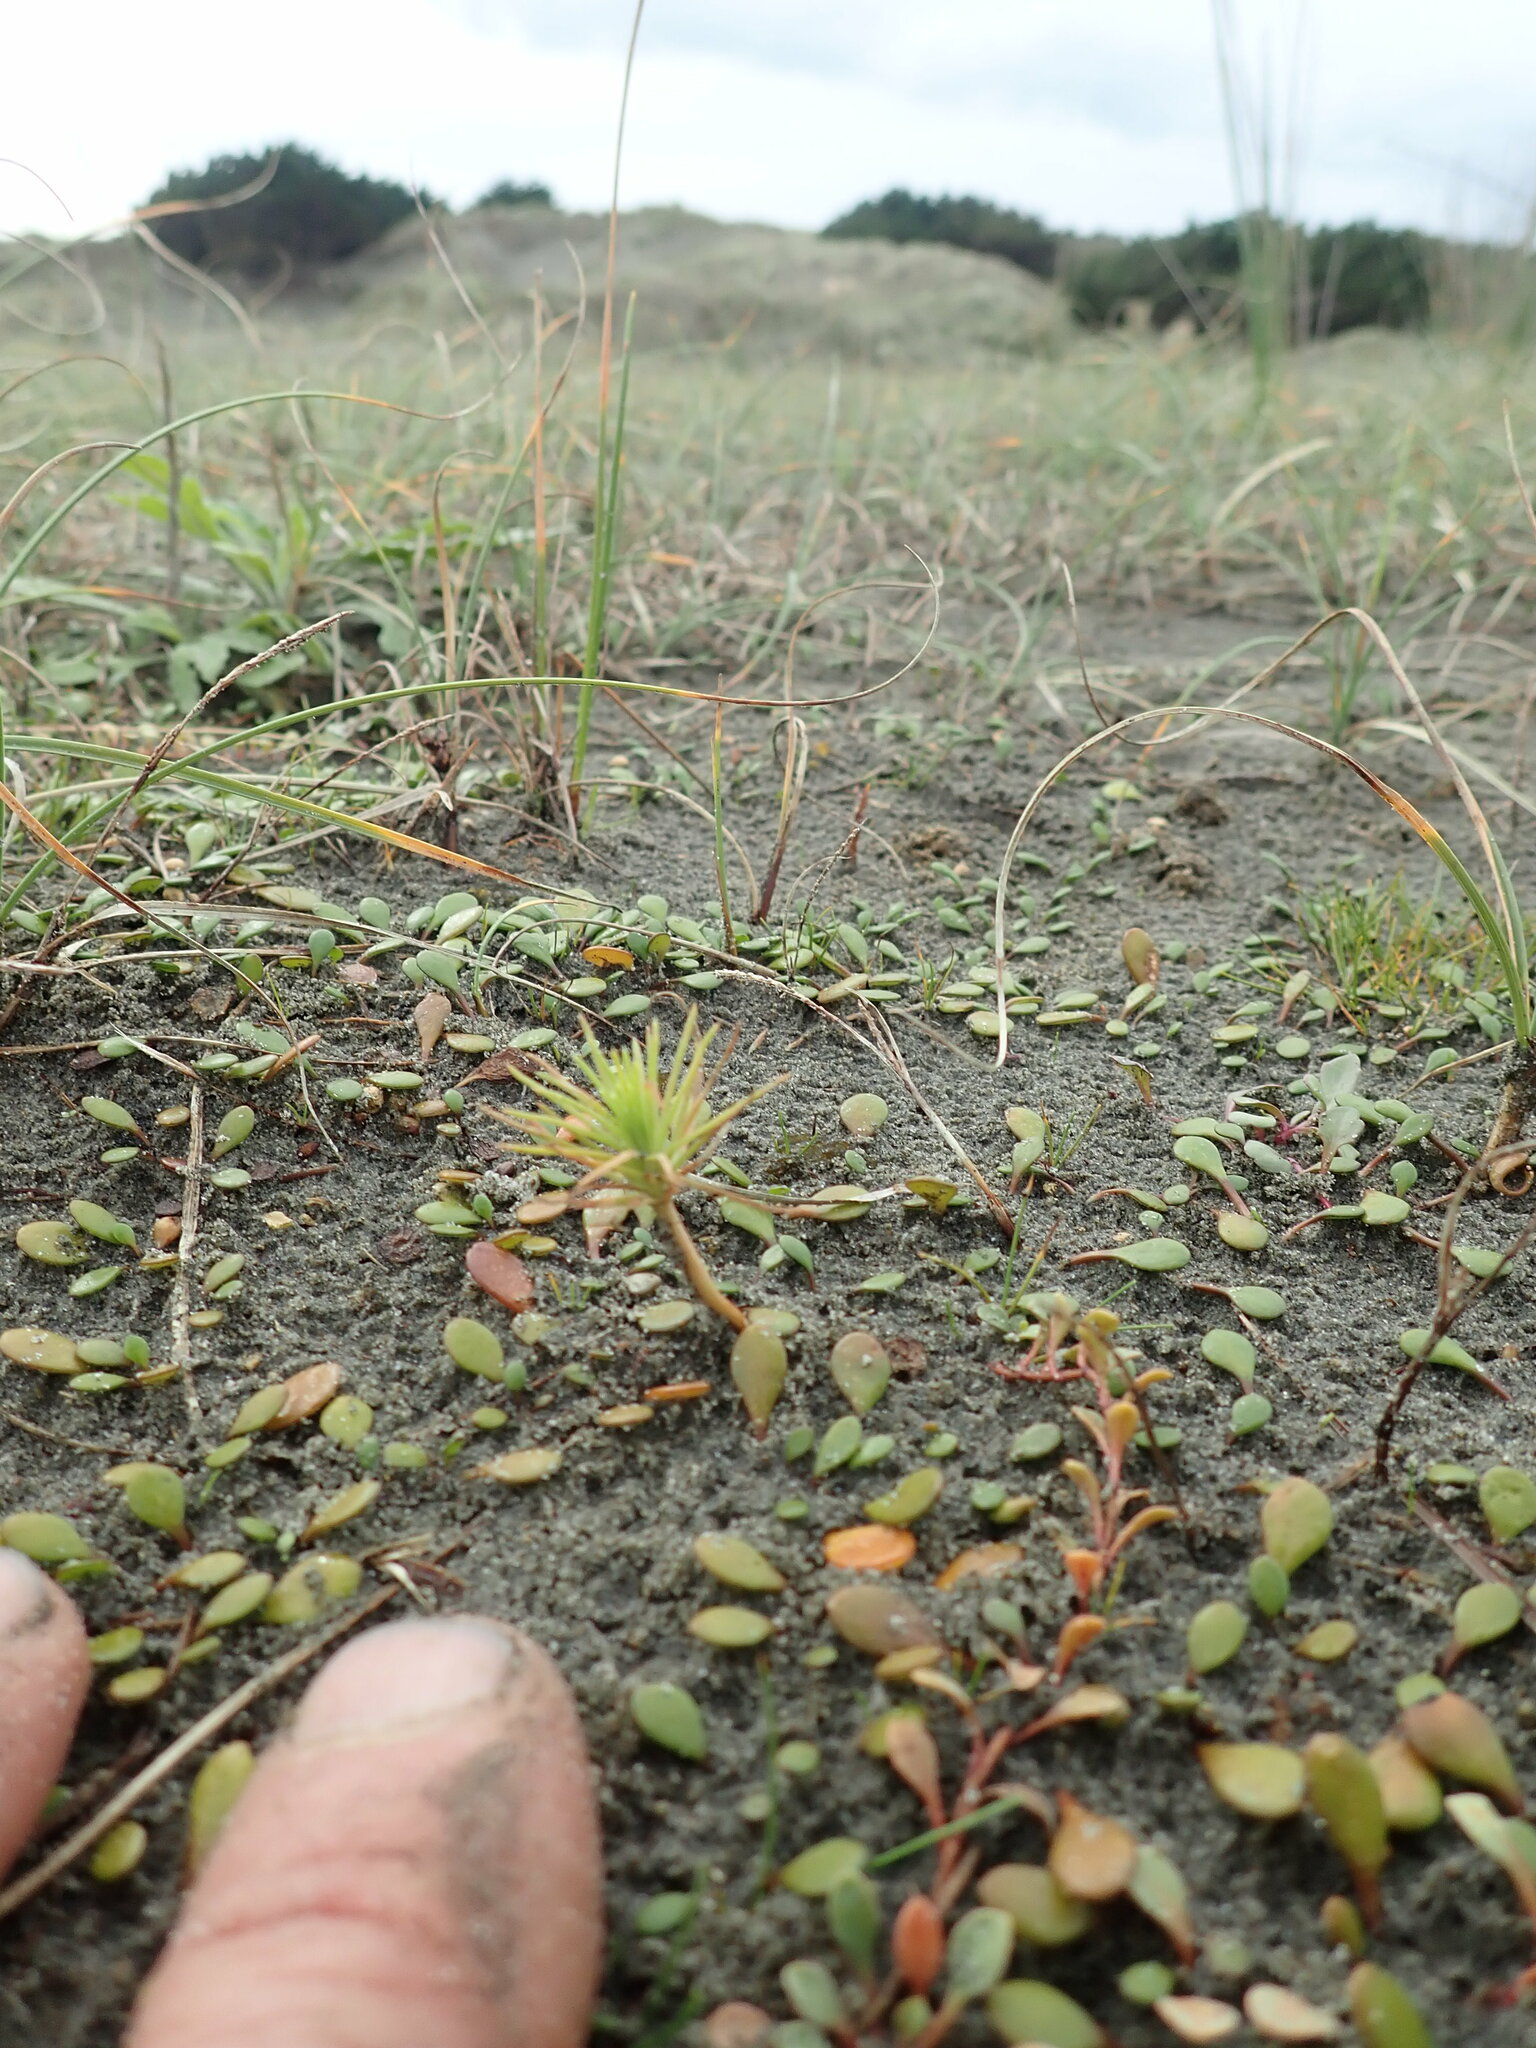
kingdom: Plantae
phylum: Tracheophyta
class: Pinopsida
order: Pinales
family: Pinaceae
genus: Pinus
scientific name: Pinus radiata
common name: Monterey pine
